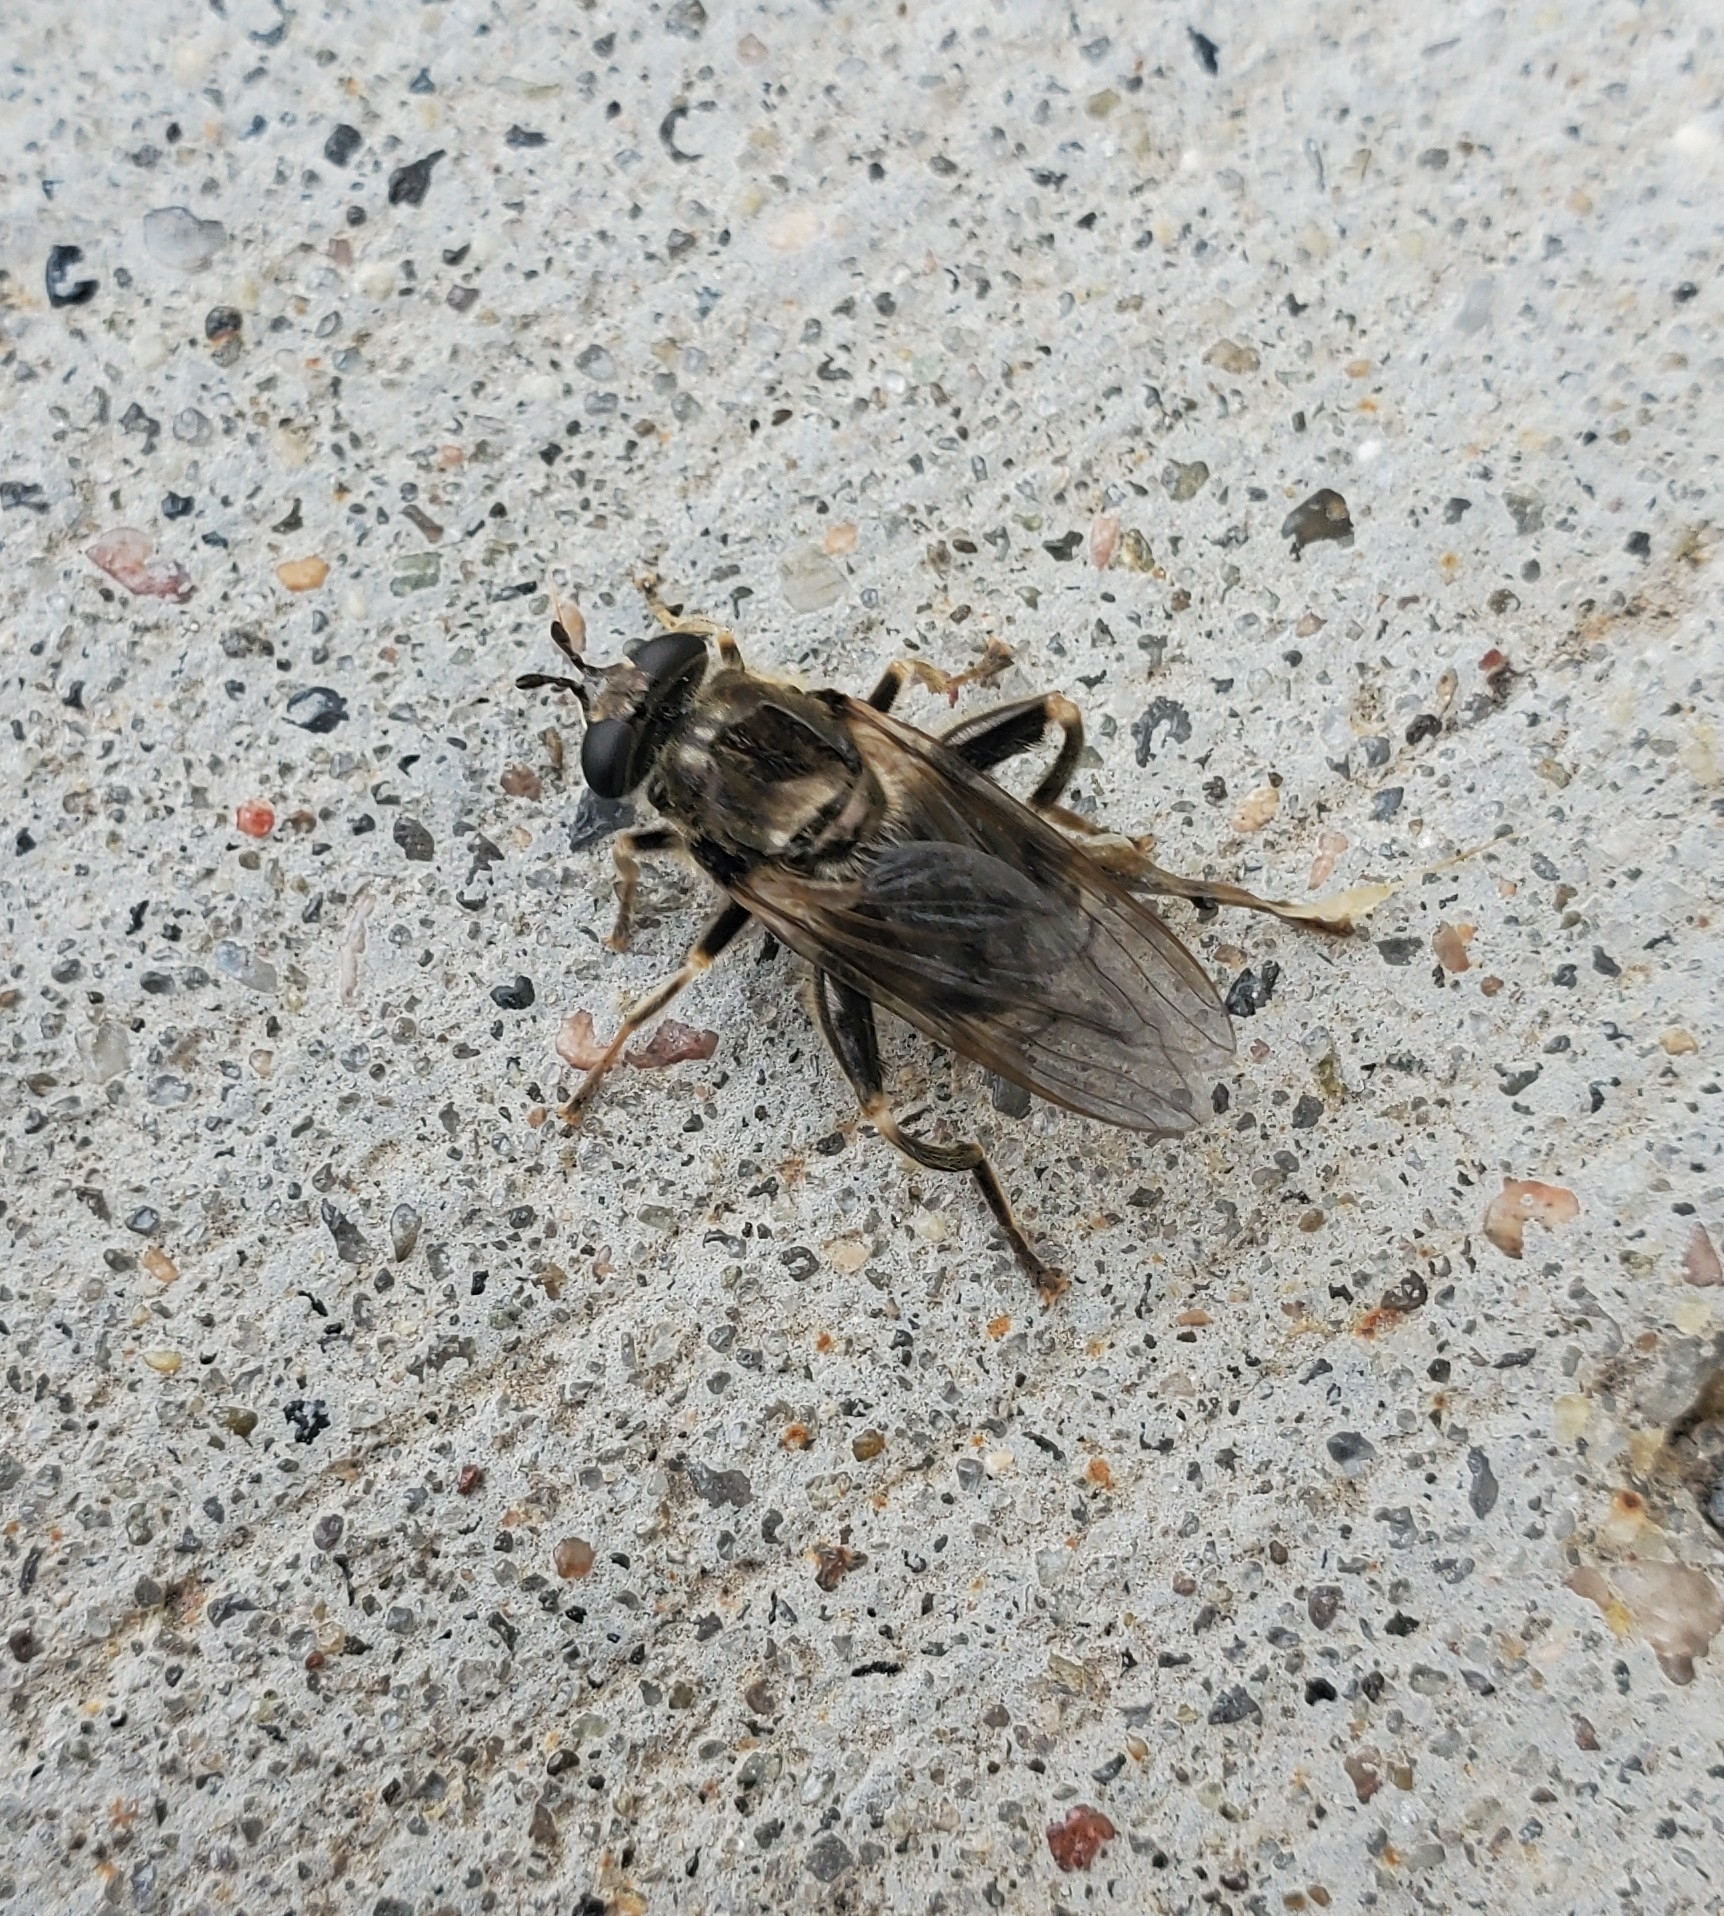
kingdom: Animalia
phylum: Arthropoda
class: Insecta
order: Diptera
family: Syrphidae
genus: Chalcosyrphus
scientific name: Chalcosyrphus
